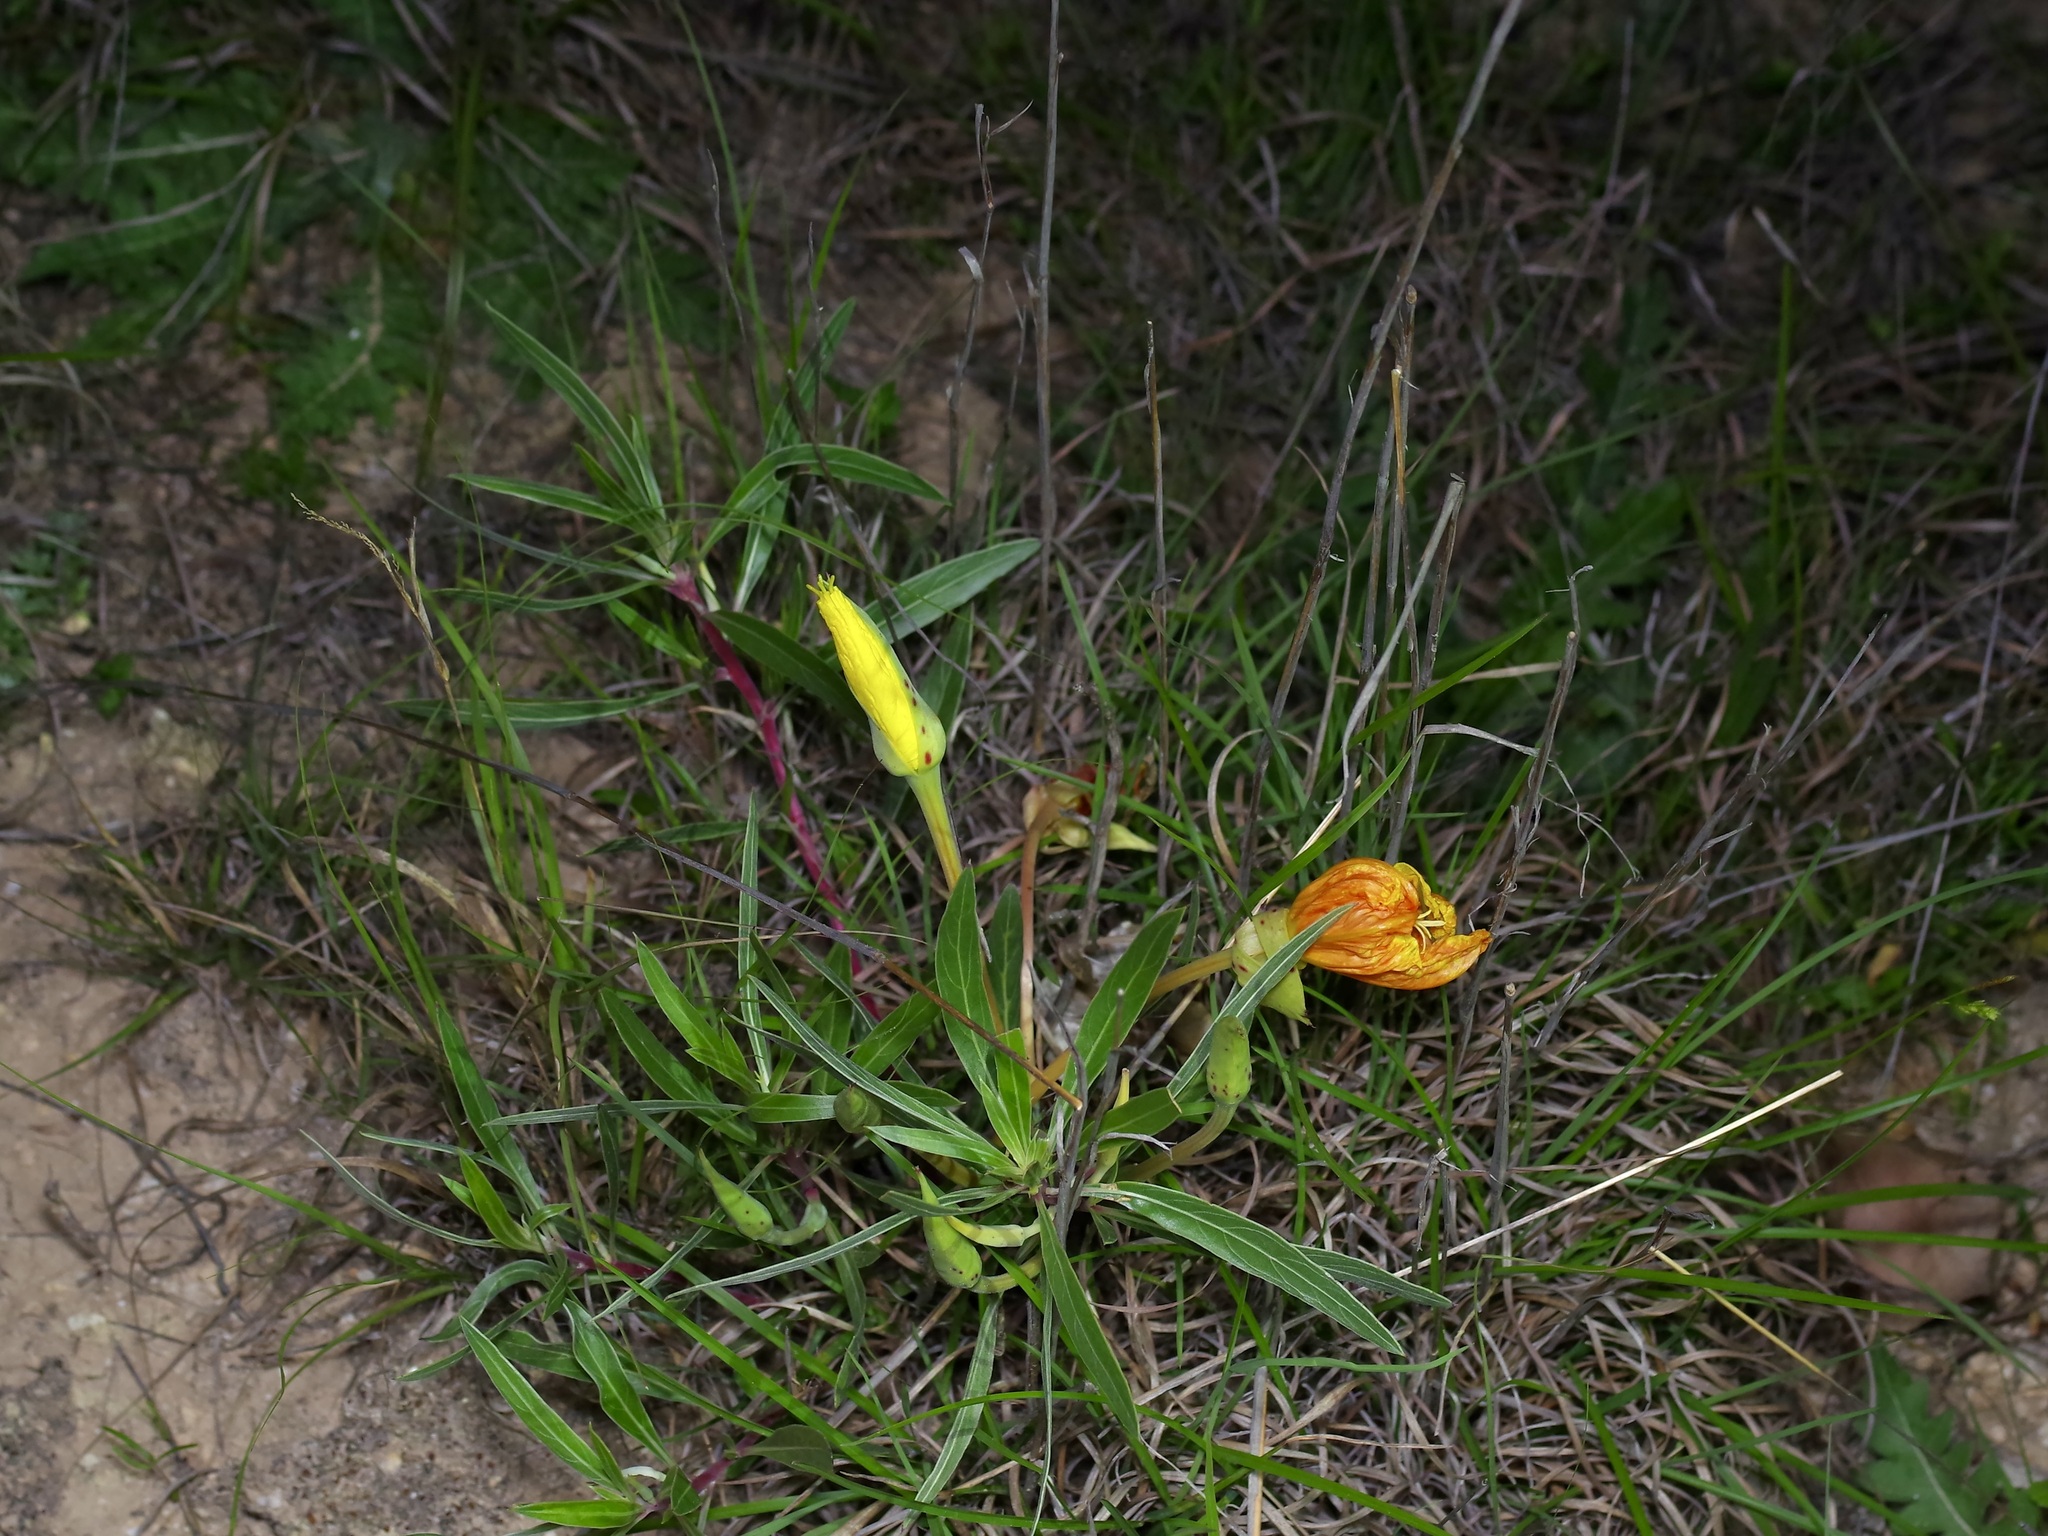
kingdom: Plantae
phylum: Tracheophyta
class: Magnoliopsida
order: Myrtales
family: Onagraceae
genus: Oenothera
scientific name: Oenothera macrocarpa
